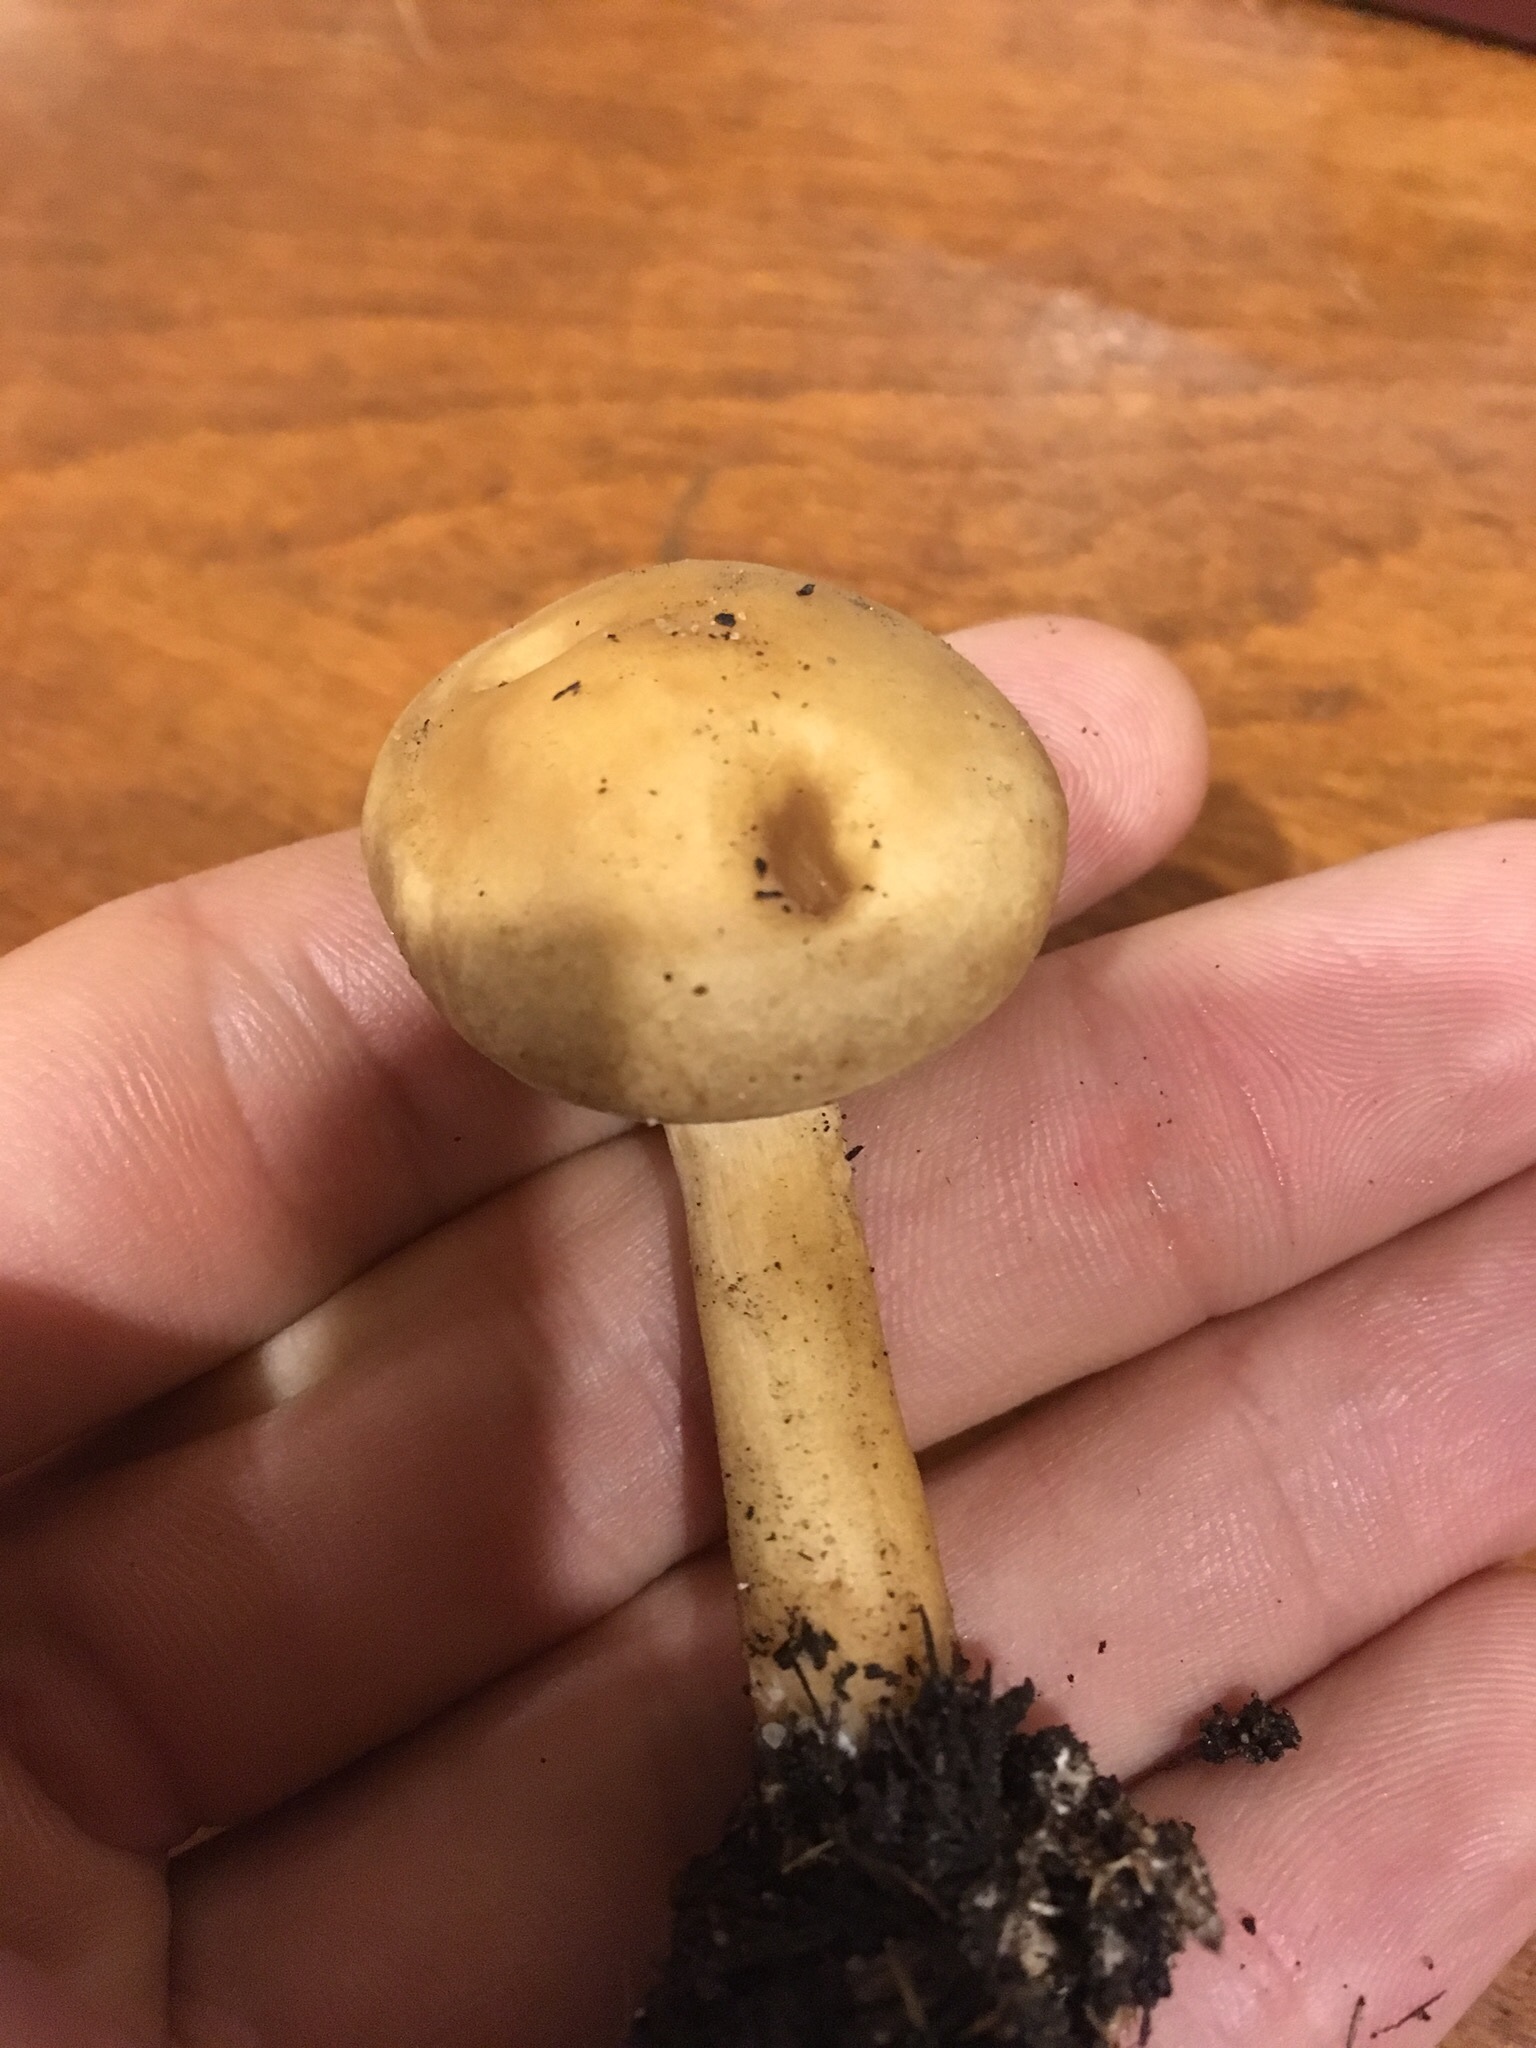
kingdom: Fungi
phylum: Basidiomycota
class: Agaricomycetes
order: Agaricales
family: Strophariaceae
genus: Agrocybe
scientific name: Agrocybe putaminum
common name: Mulch fieldcap
